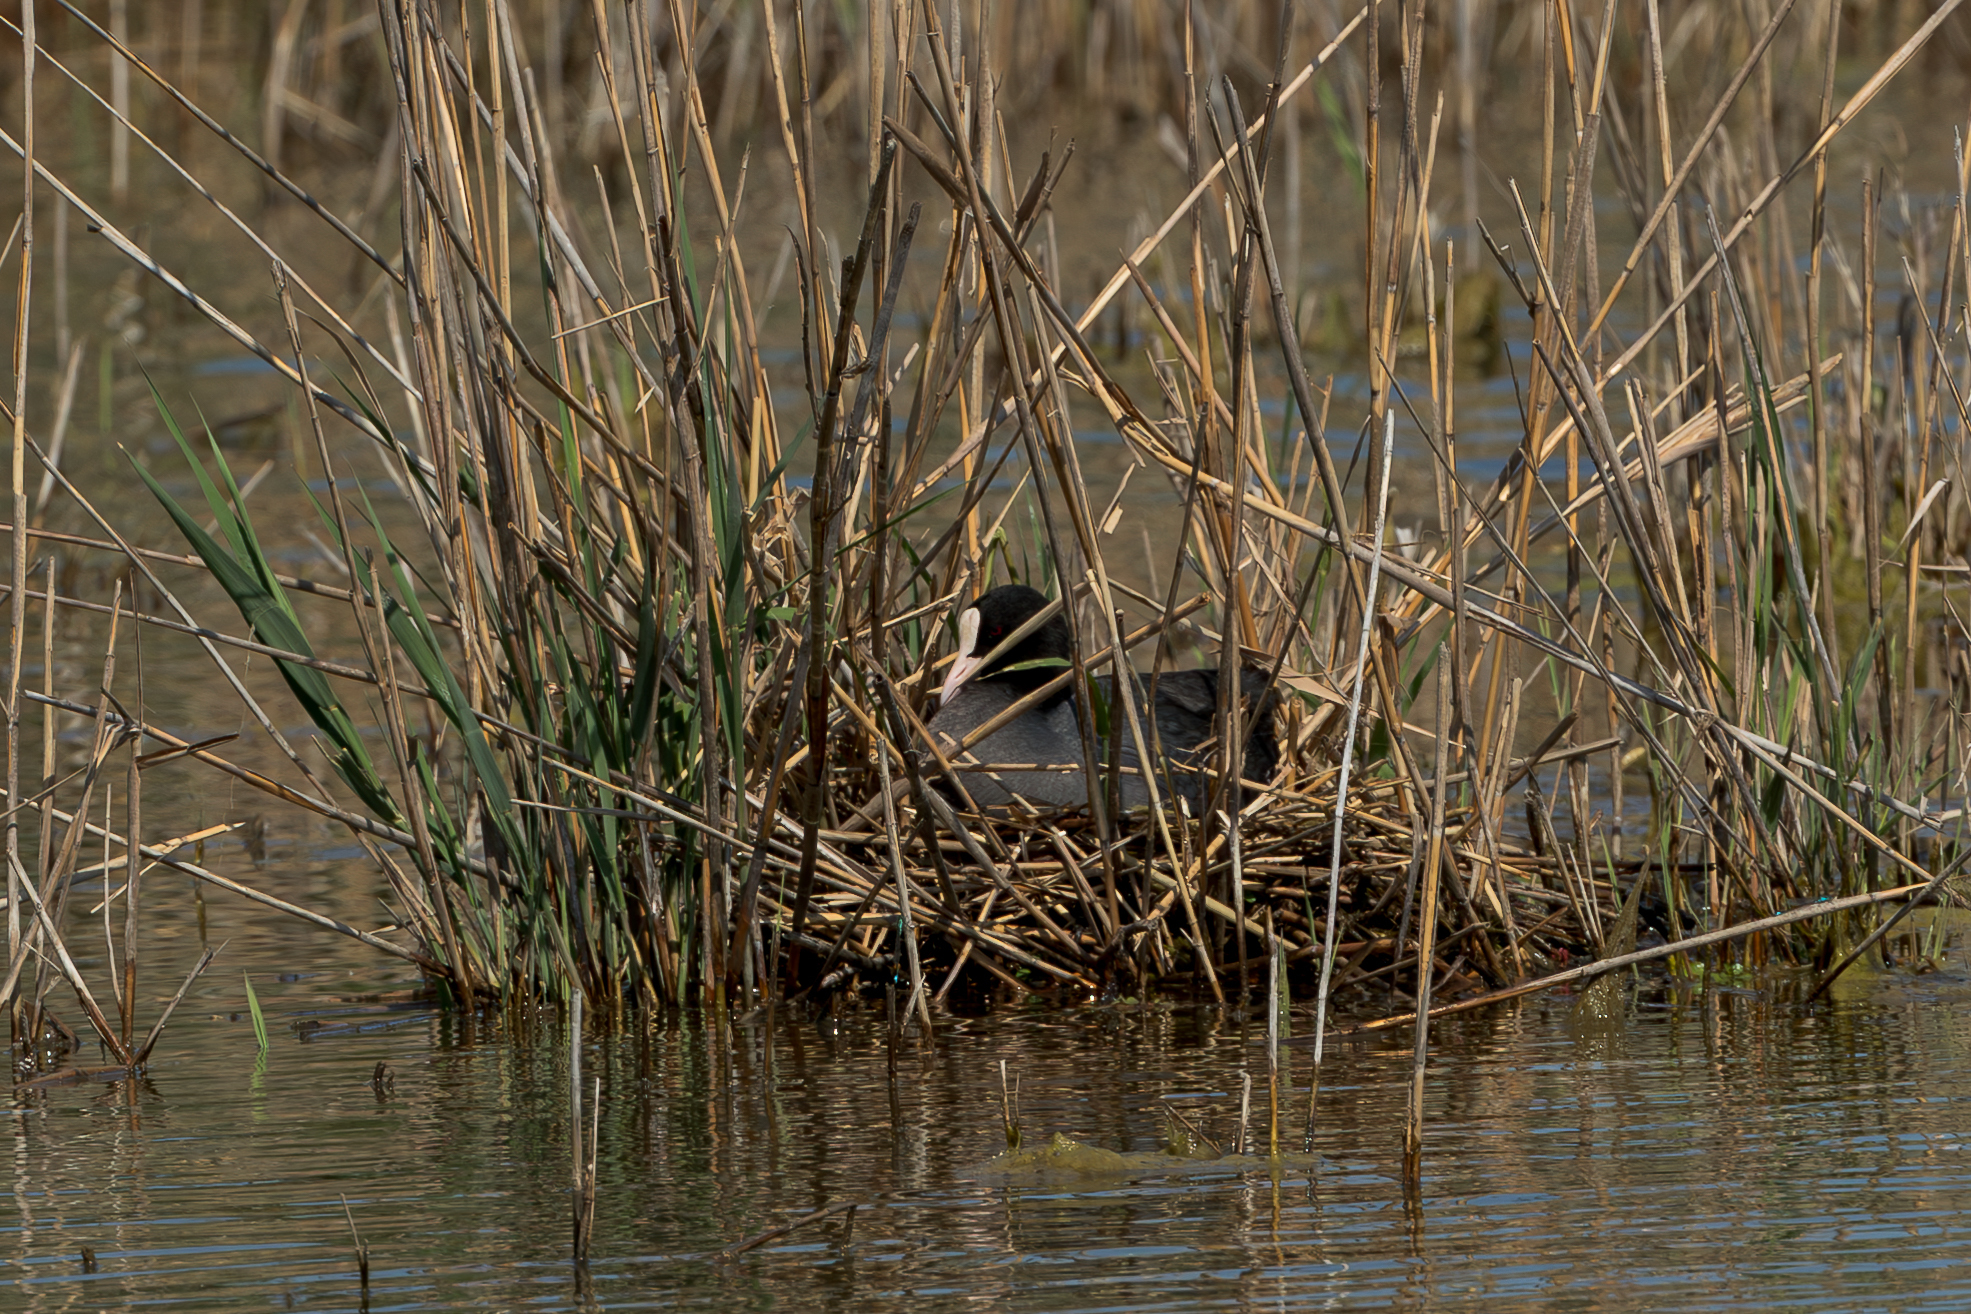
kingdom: Animalia
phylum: Chordata
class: Aves
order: Gruiformes
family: Rallidae
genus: Fulica
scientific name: Fulica atra
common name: Eurasian coot
